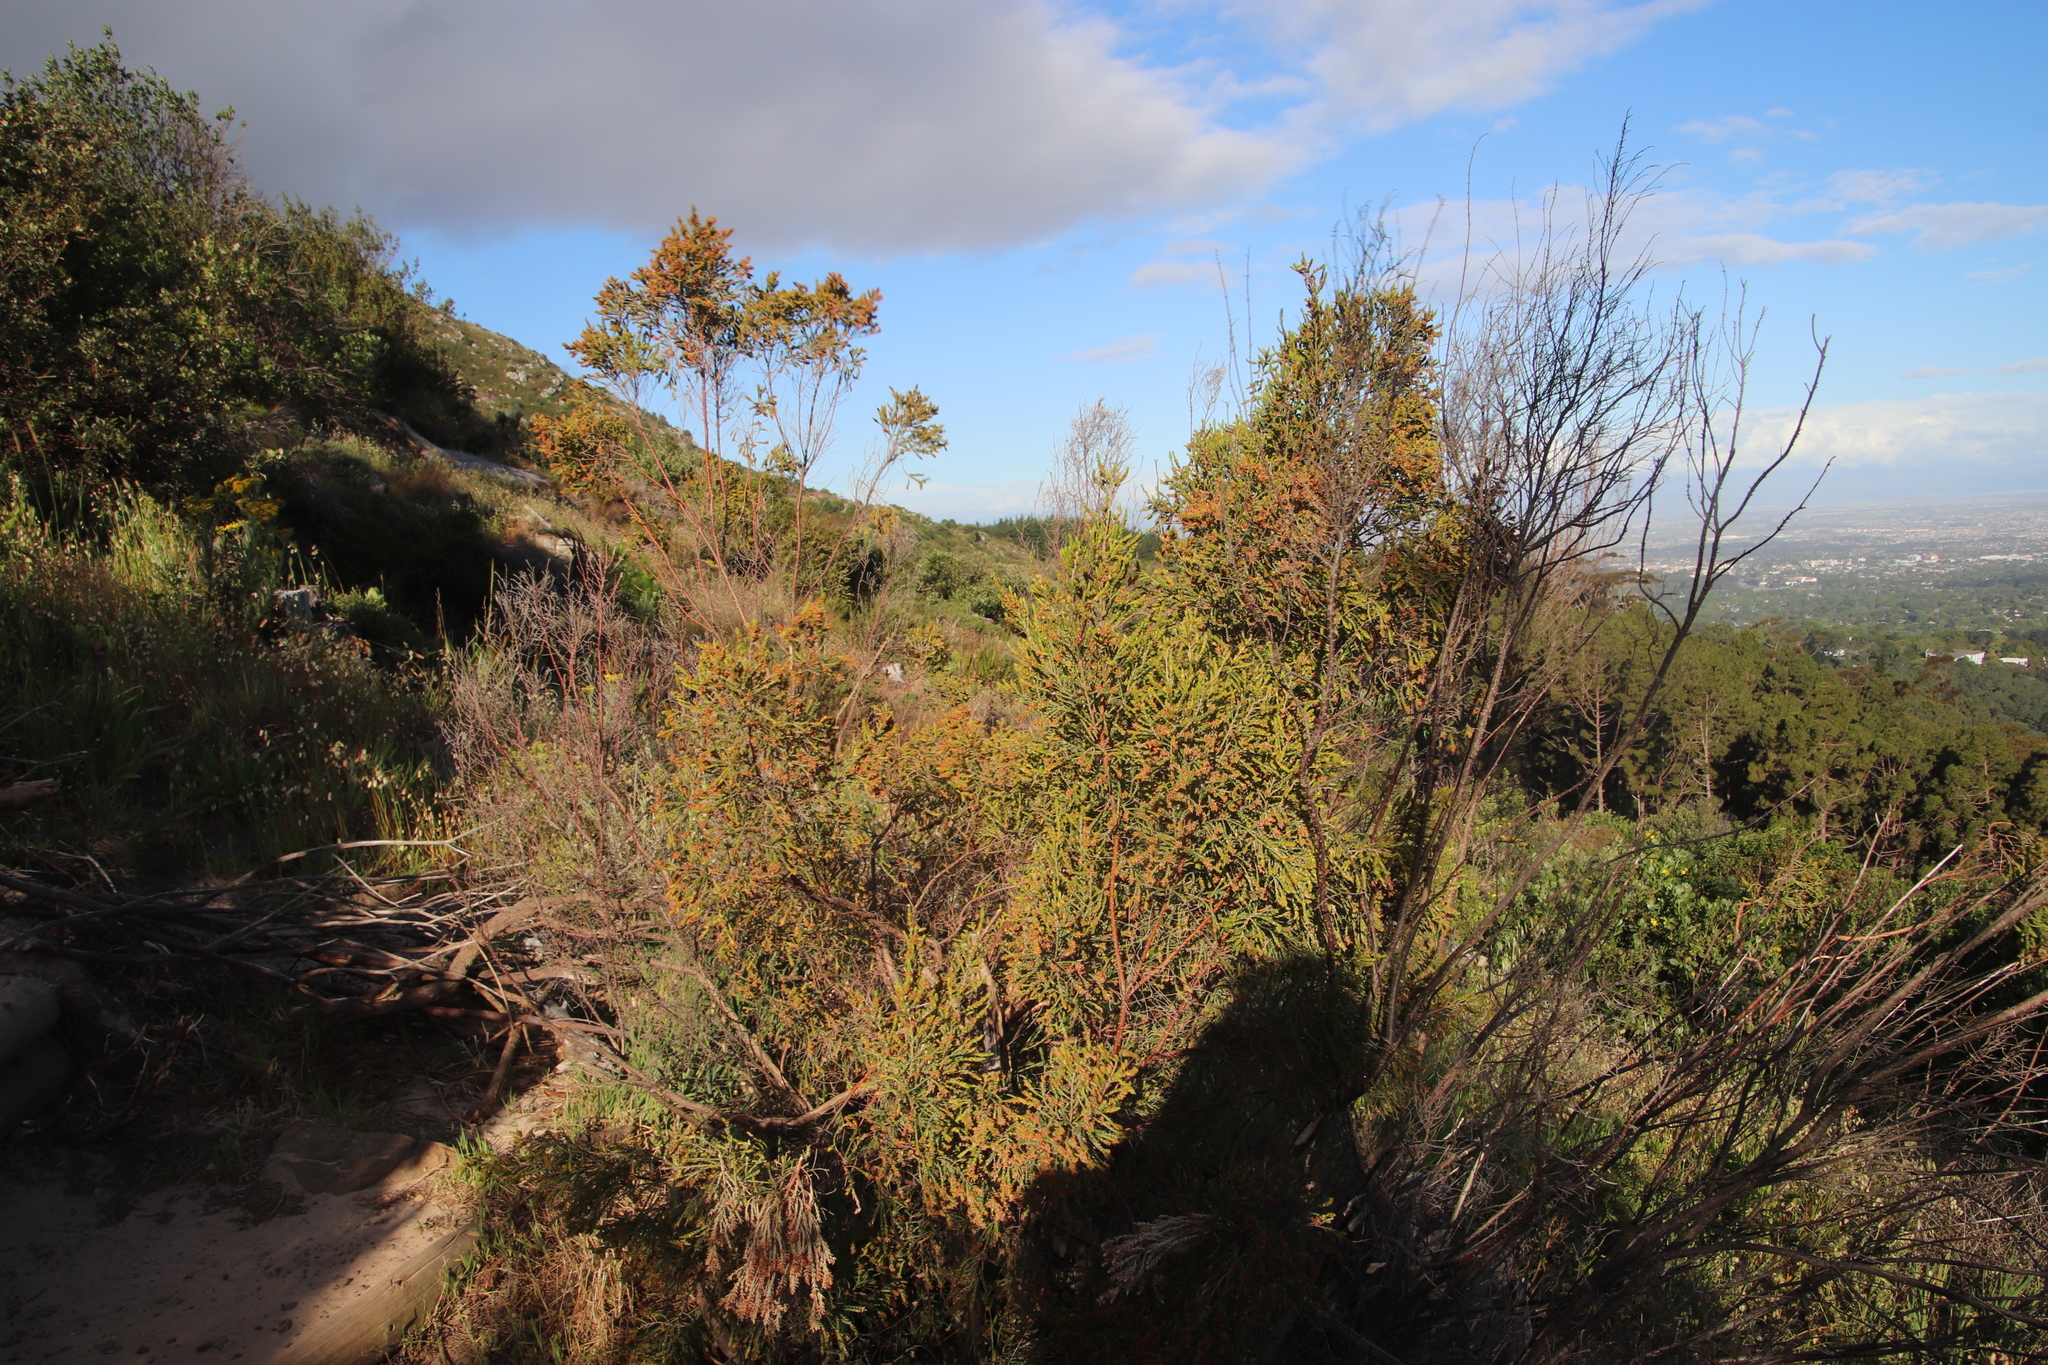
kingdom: Plantae
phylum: Tracheophyta
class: Magnoliopsida
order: Malvales
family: Thymelaeaceae
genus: Passerina
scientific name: Passerina corymbosa
